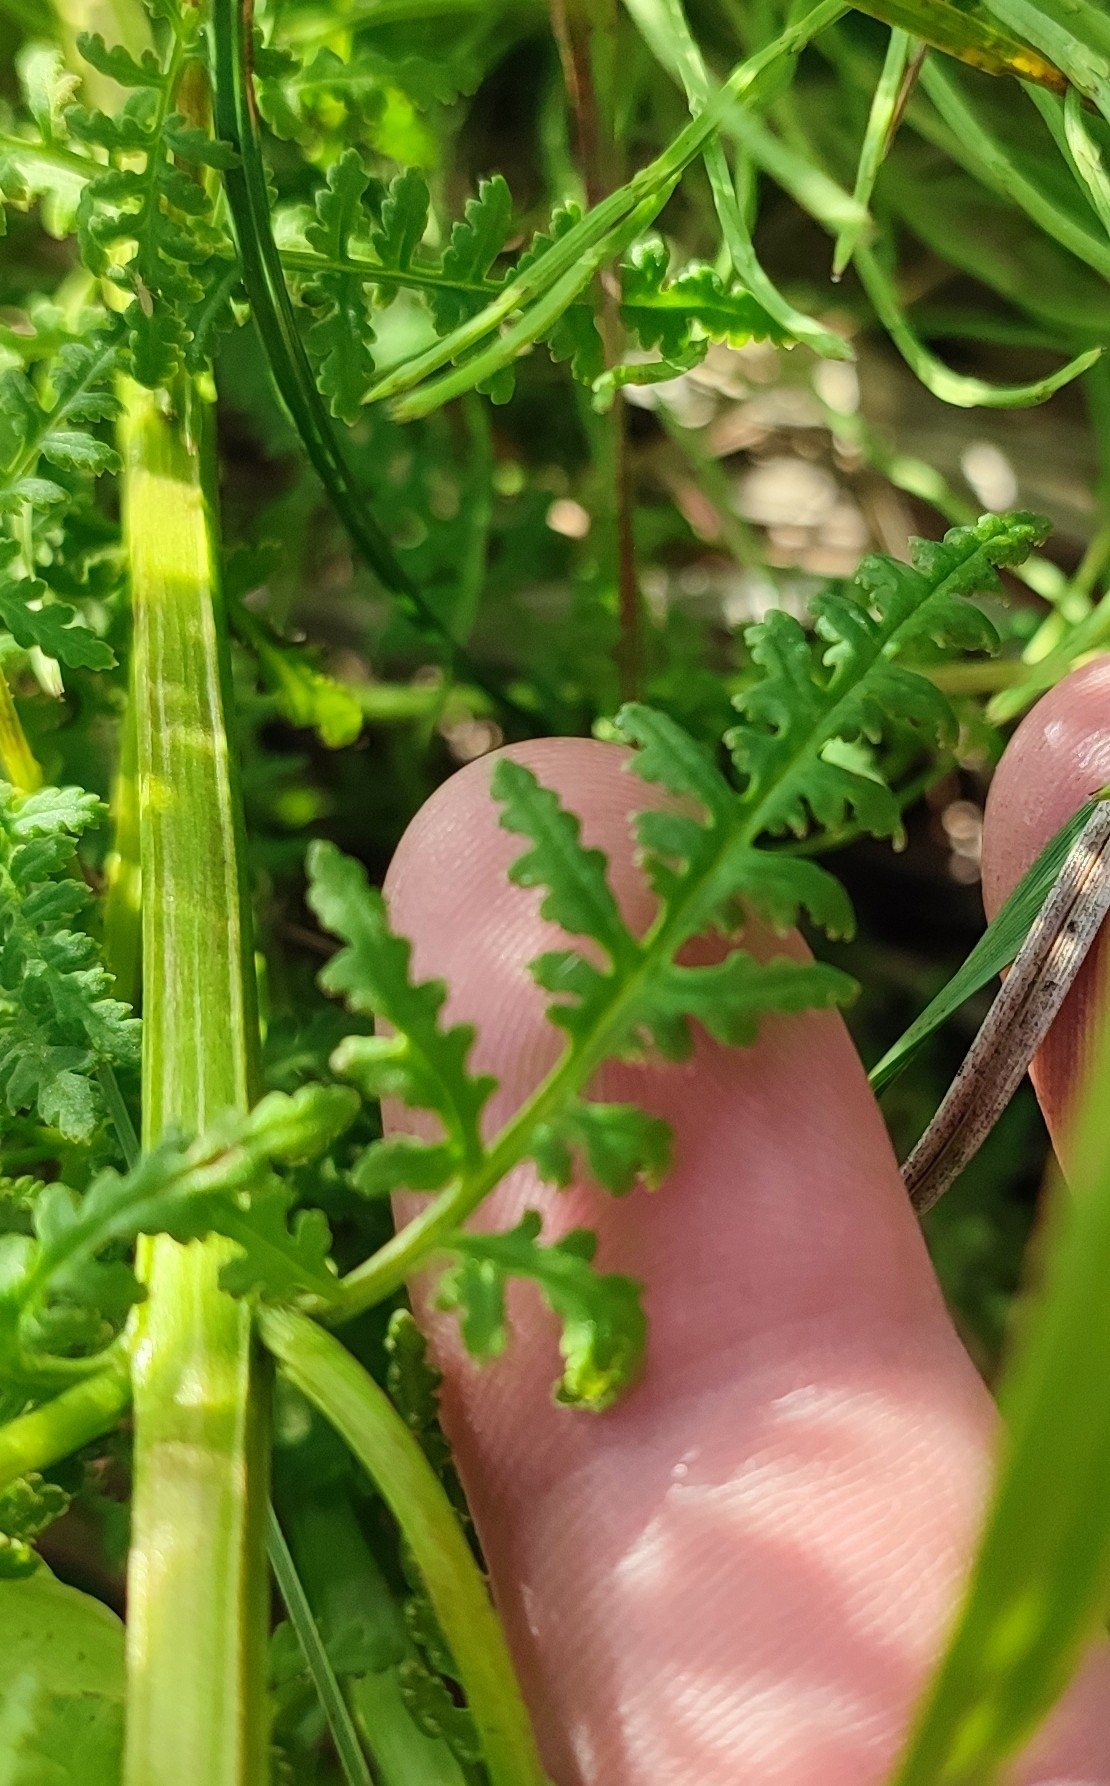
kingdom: Plantae
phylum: Tracheophyta
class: Magnoliopsida
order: Lamiales
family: Orobanchaceae
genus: Pedicularis
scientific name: Pedicularis karoi
